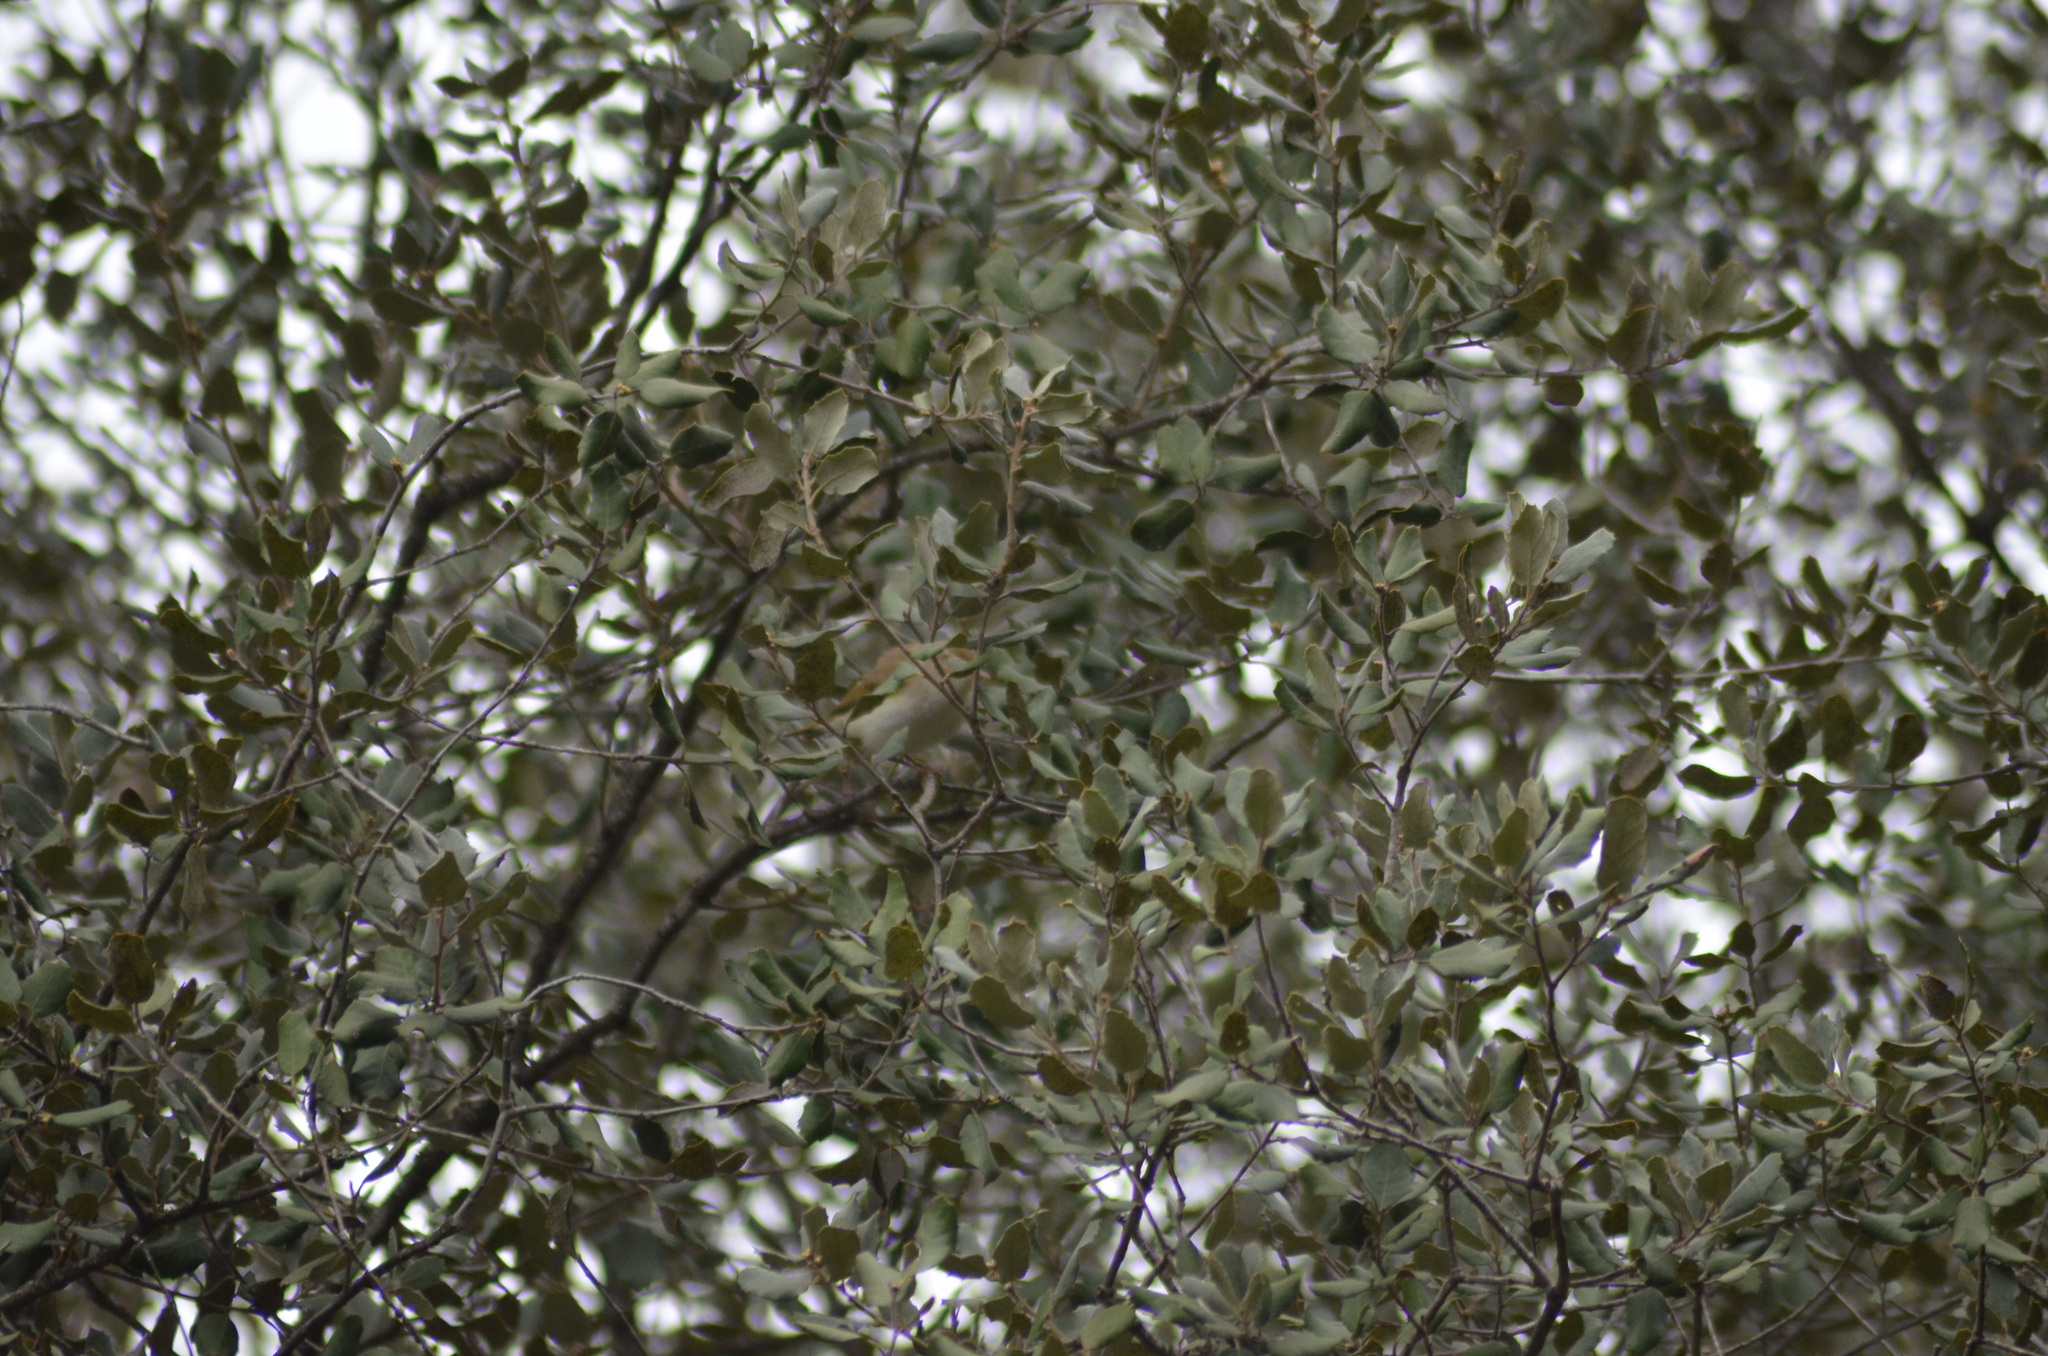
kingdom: Plantae
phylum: Tracheophyta
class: Magnoliopsida
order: Fagales
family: Fagaceae
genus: Quercus
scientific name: Quercus autumnalis
